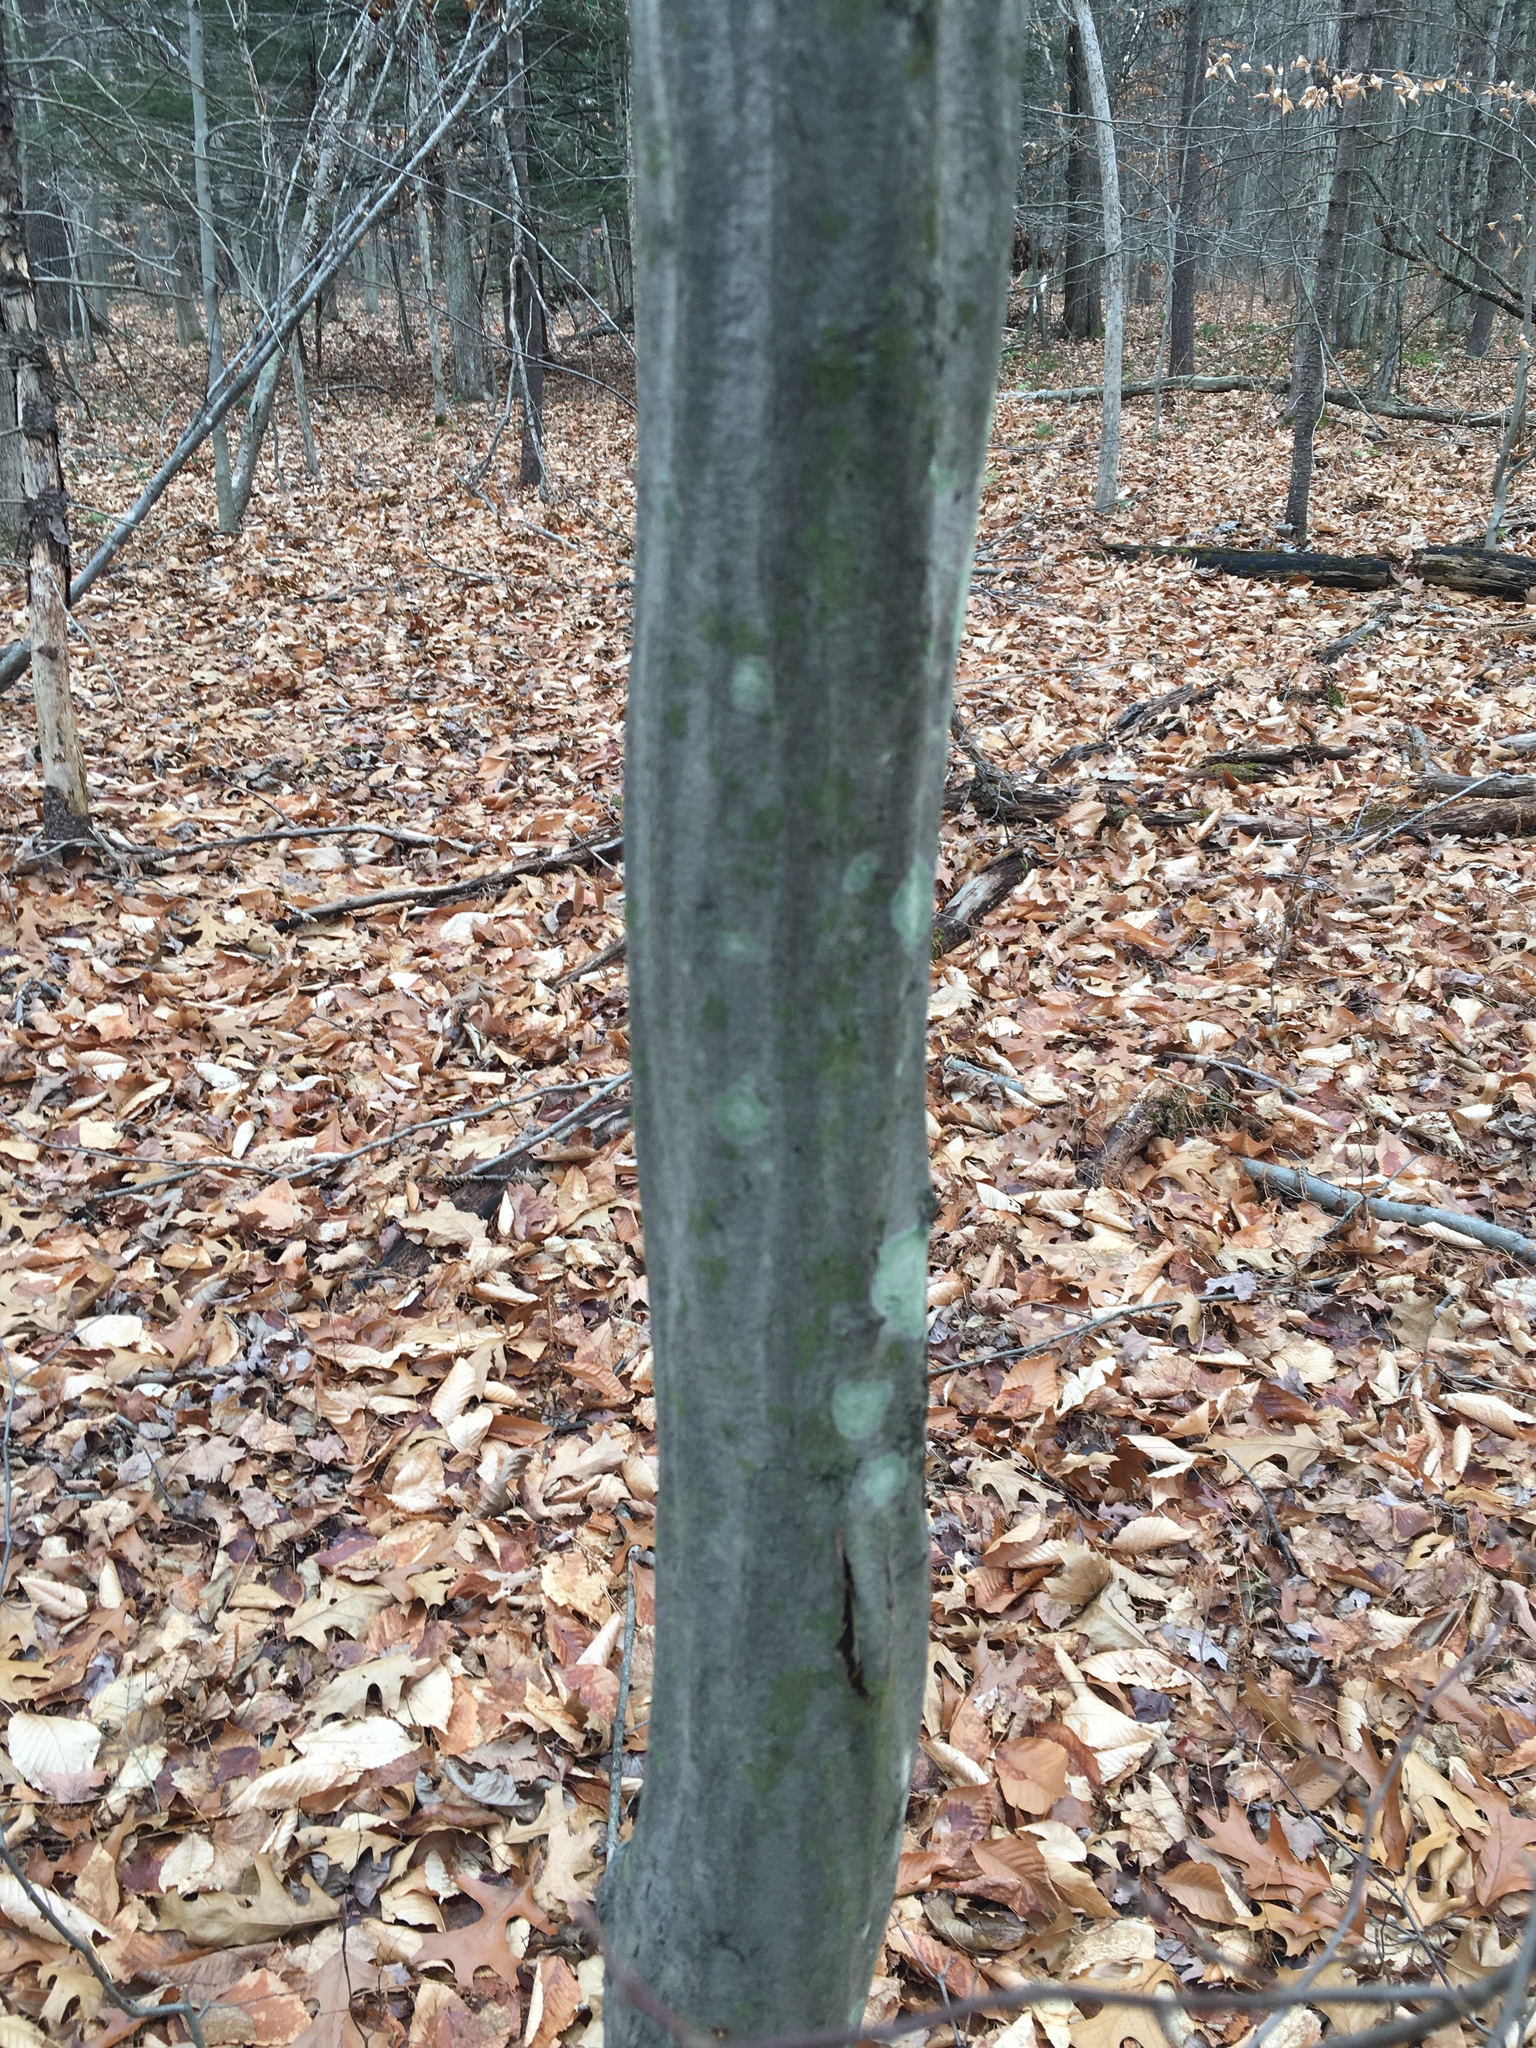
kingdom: Plantae
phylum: Tracheophyta
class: Magnoliopsida
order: Fagales
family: Betulaceae
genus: Carpinus
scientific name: Carpinus caroliniana
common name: American hornbeam
